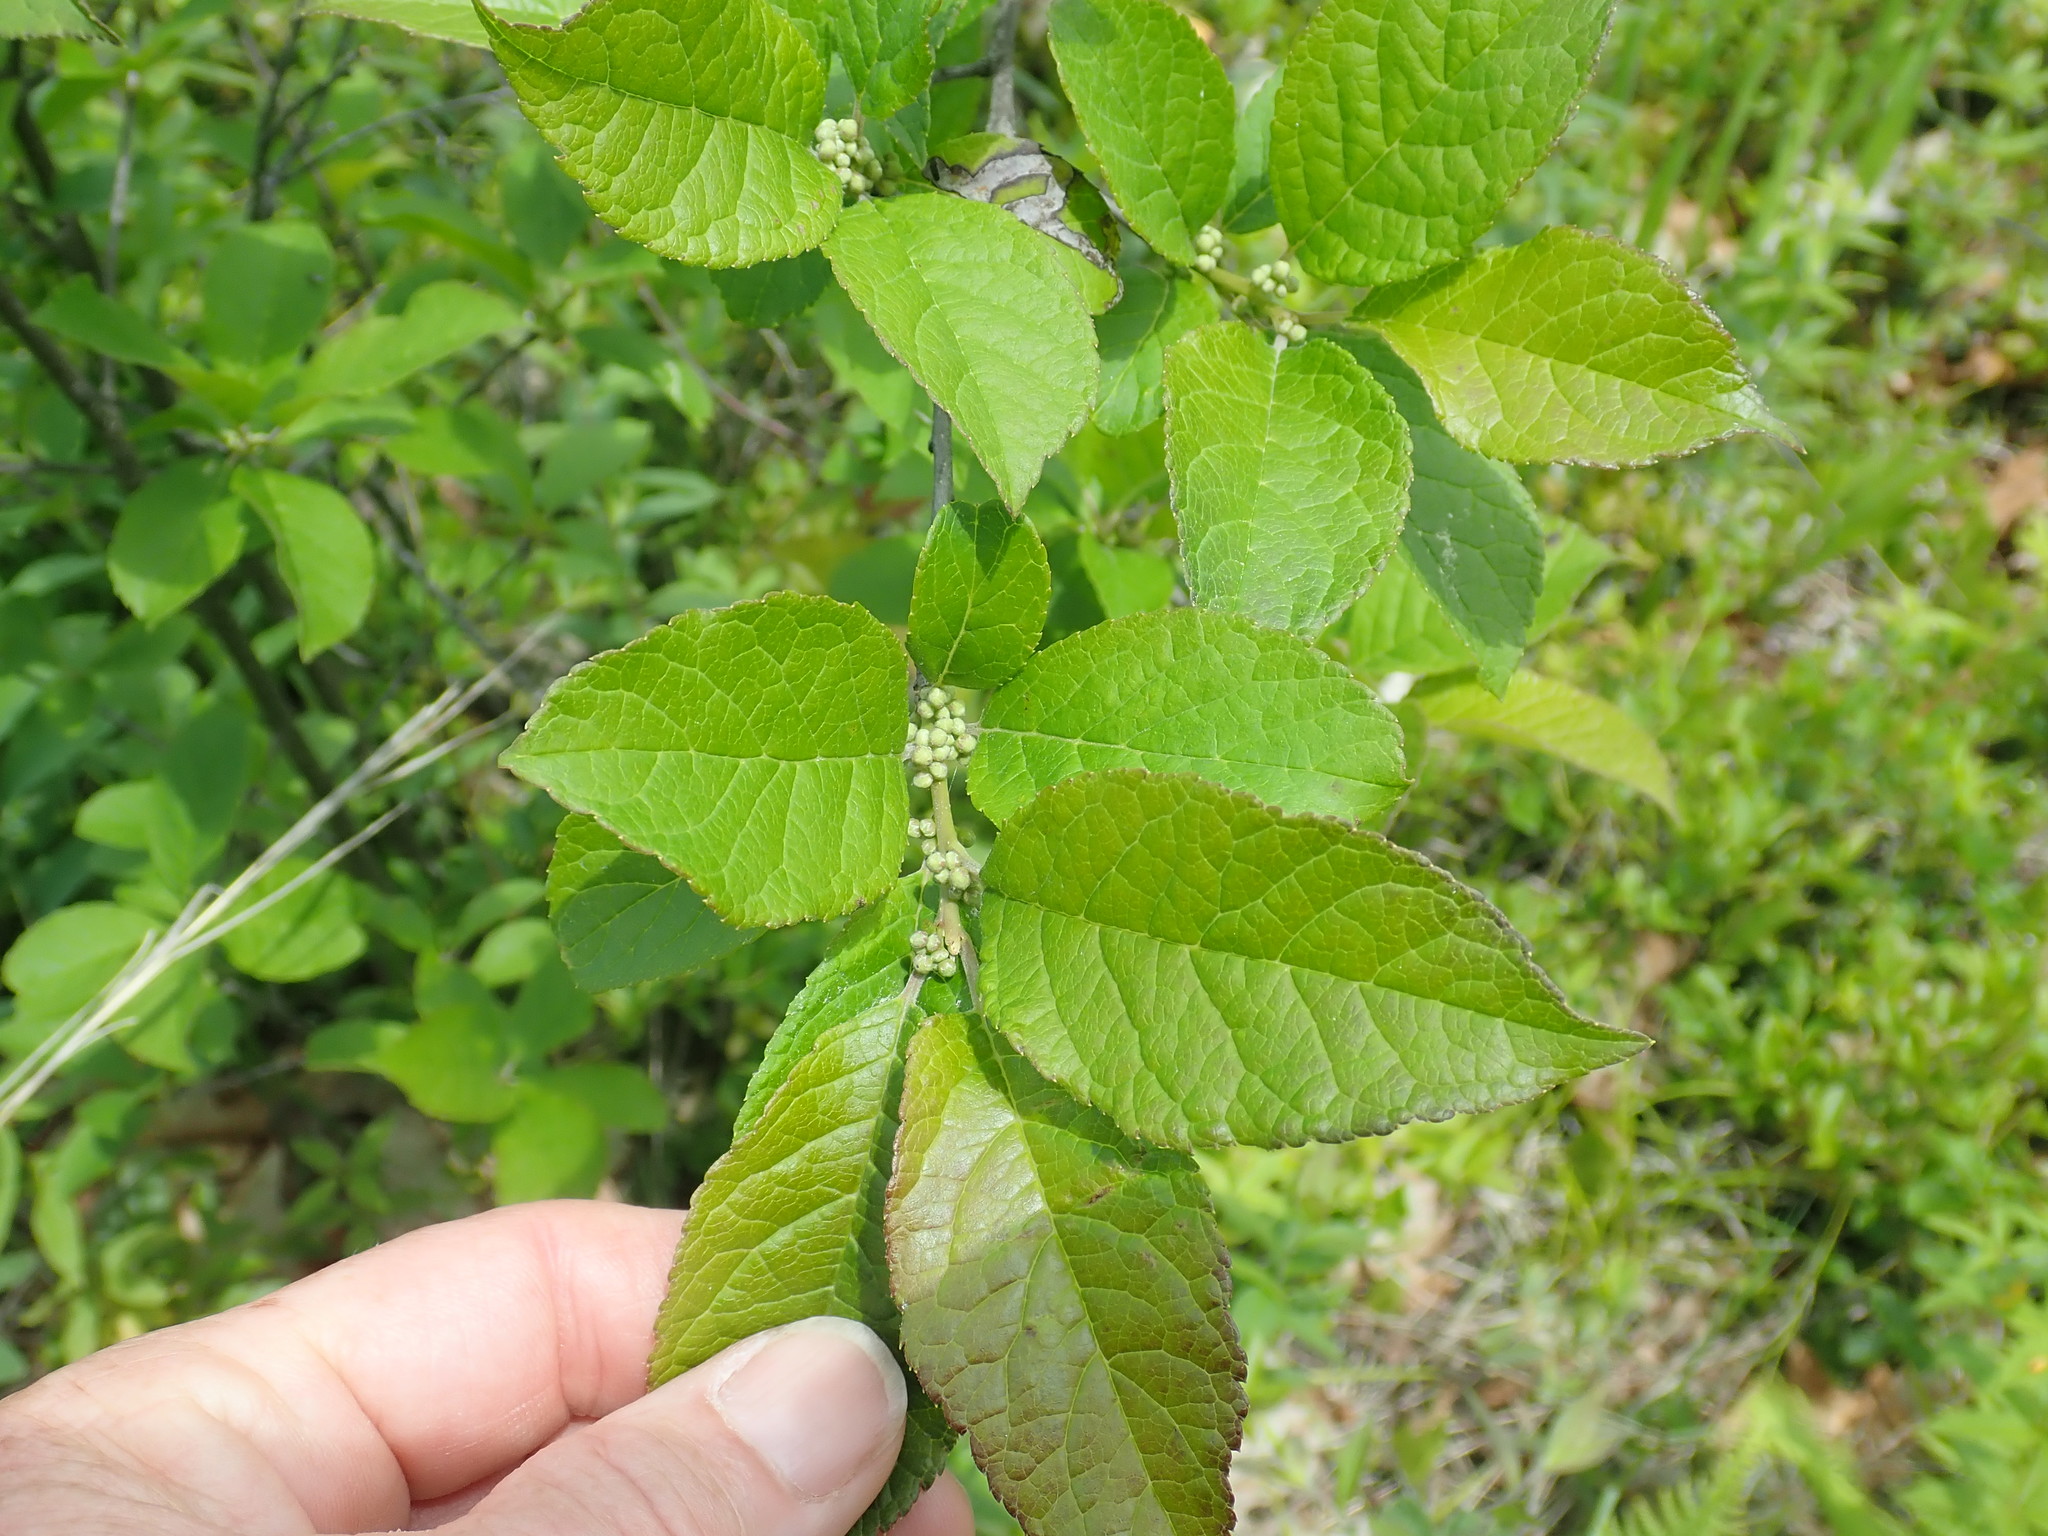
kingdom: Plantae
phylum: Tracheophyta
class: Magnoliopsida
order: Aquifoliales
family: Aquifoliaceae
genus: Ilex
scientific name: Ilex verticillata
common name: Virginia winterberry
